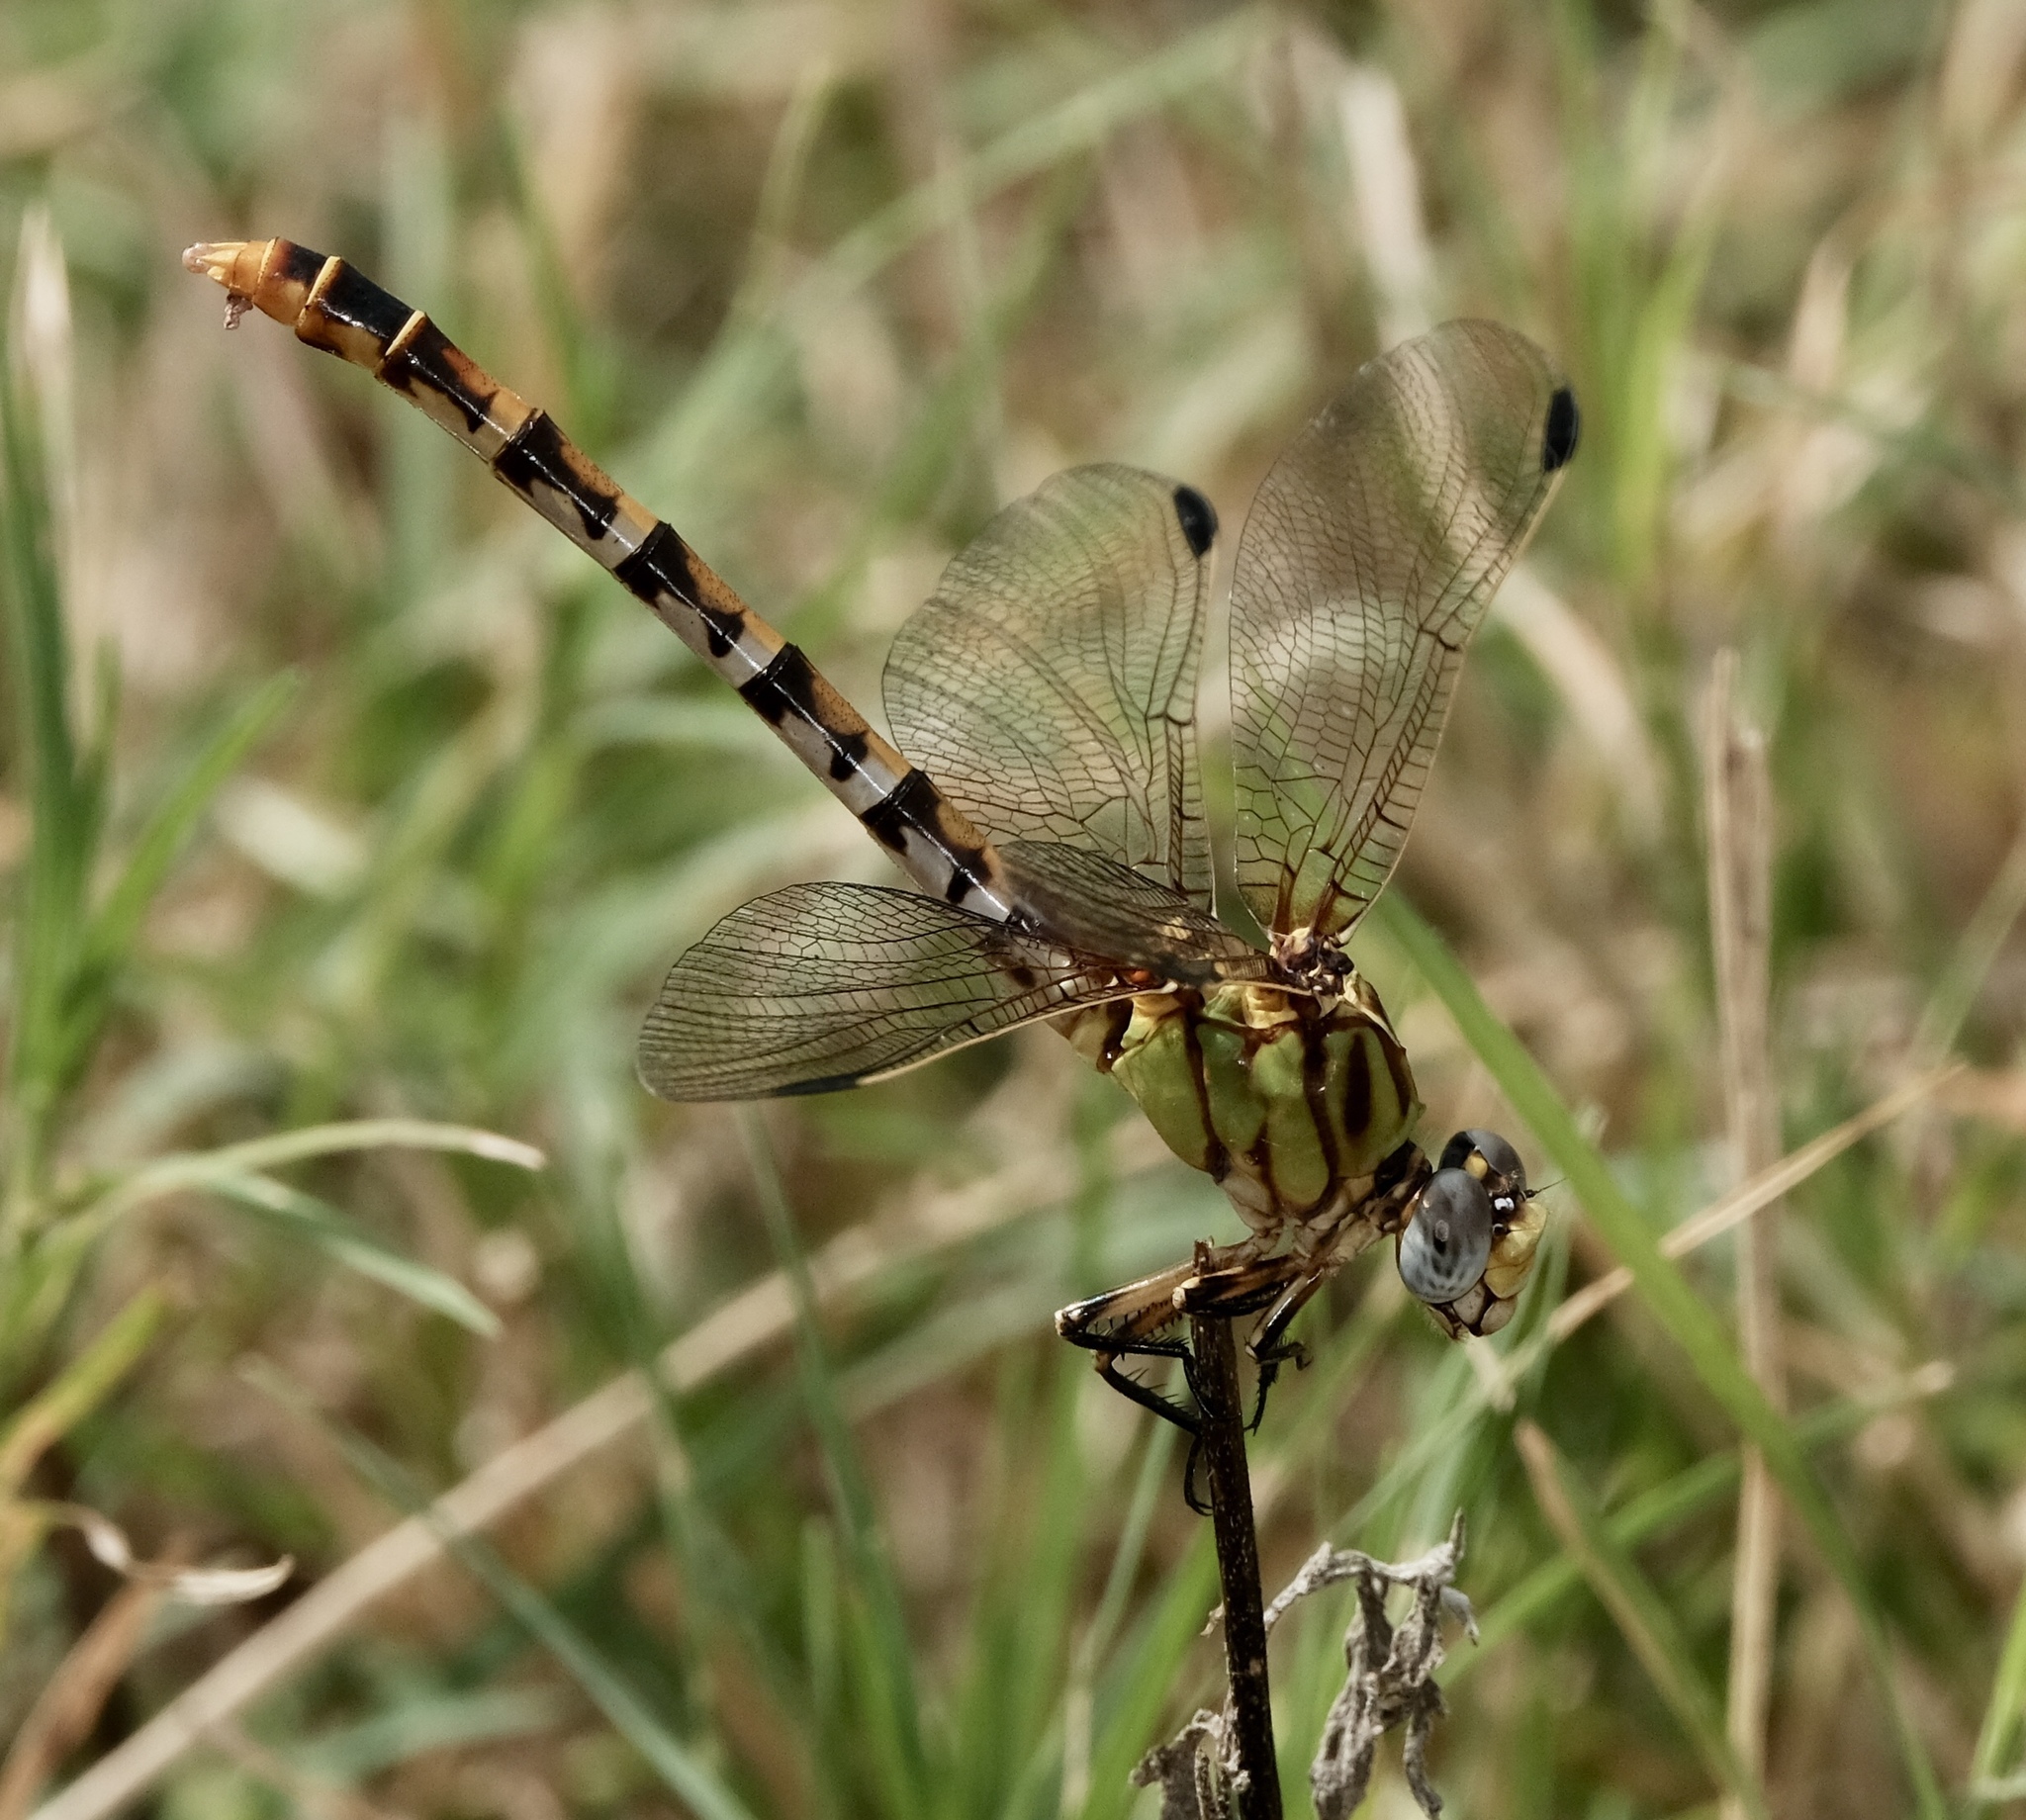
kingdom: Animalia
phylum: Arthropoda
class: Insecta
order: Odonata
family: Gomphidae
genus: Erpetogomphus
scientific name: Erpetogomphus designatus
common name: Eastern ringtail
